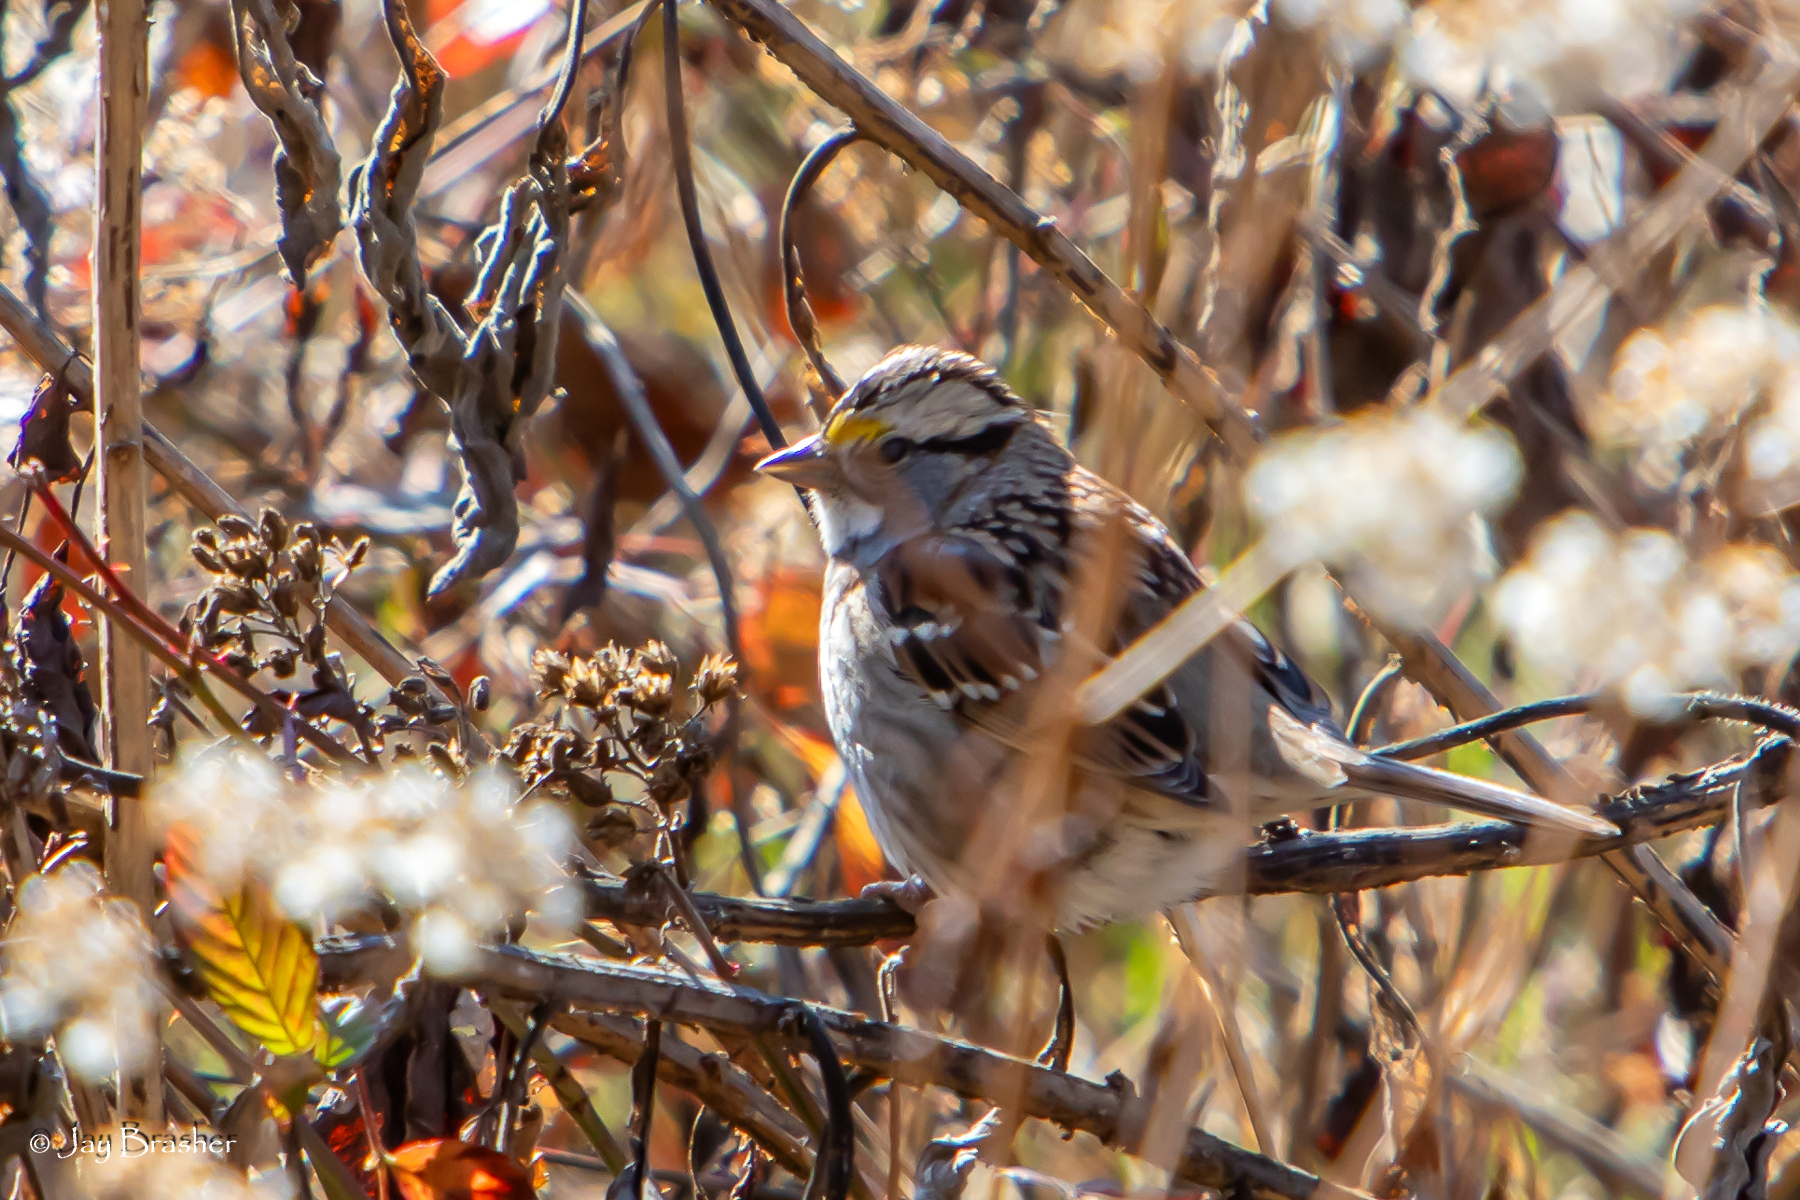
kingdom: Animalia
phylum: Chordata
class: Aves
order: Passeriformes
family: Passerellidae
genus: Zonotrichia
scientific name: Zonotrichia albicollis
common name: White-throated sparrow
